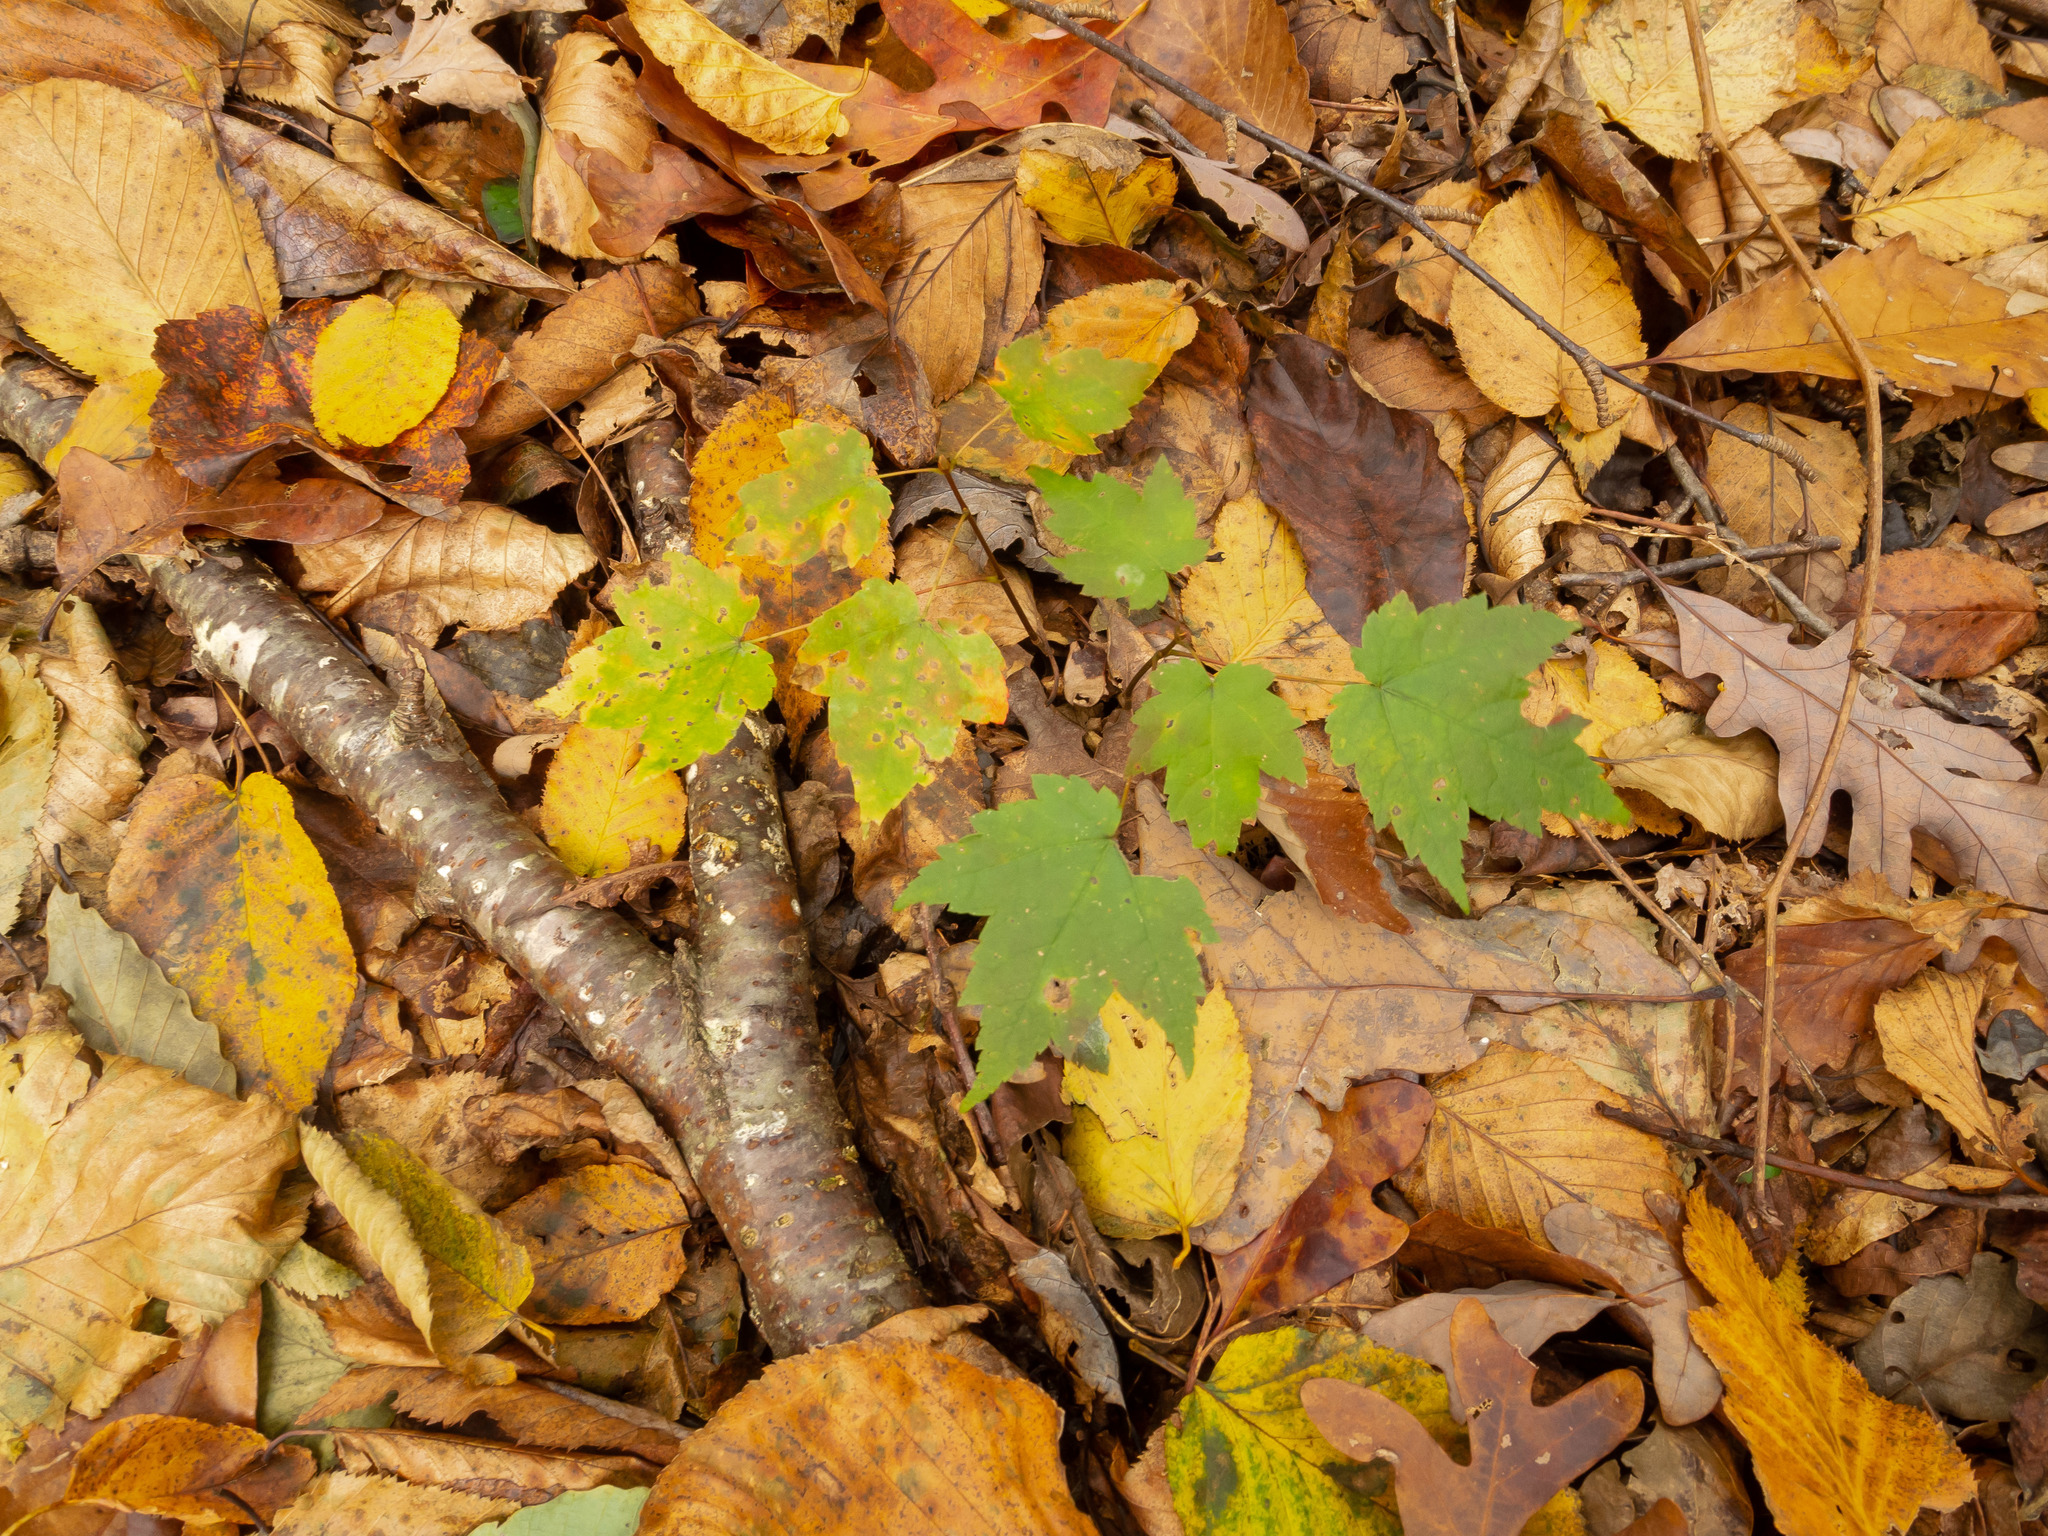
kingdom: Plantae
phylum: Tracheophyta
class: Magnoliopsida
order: Fagales
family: Fagaceae
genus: Quercus
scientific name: Quercus alba
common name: White oak
